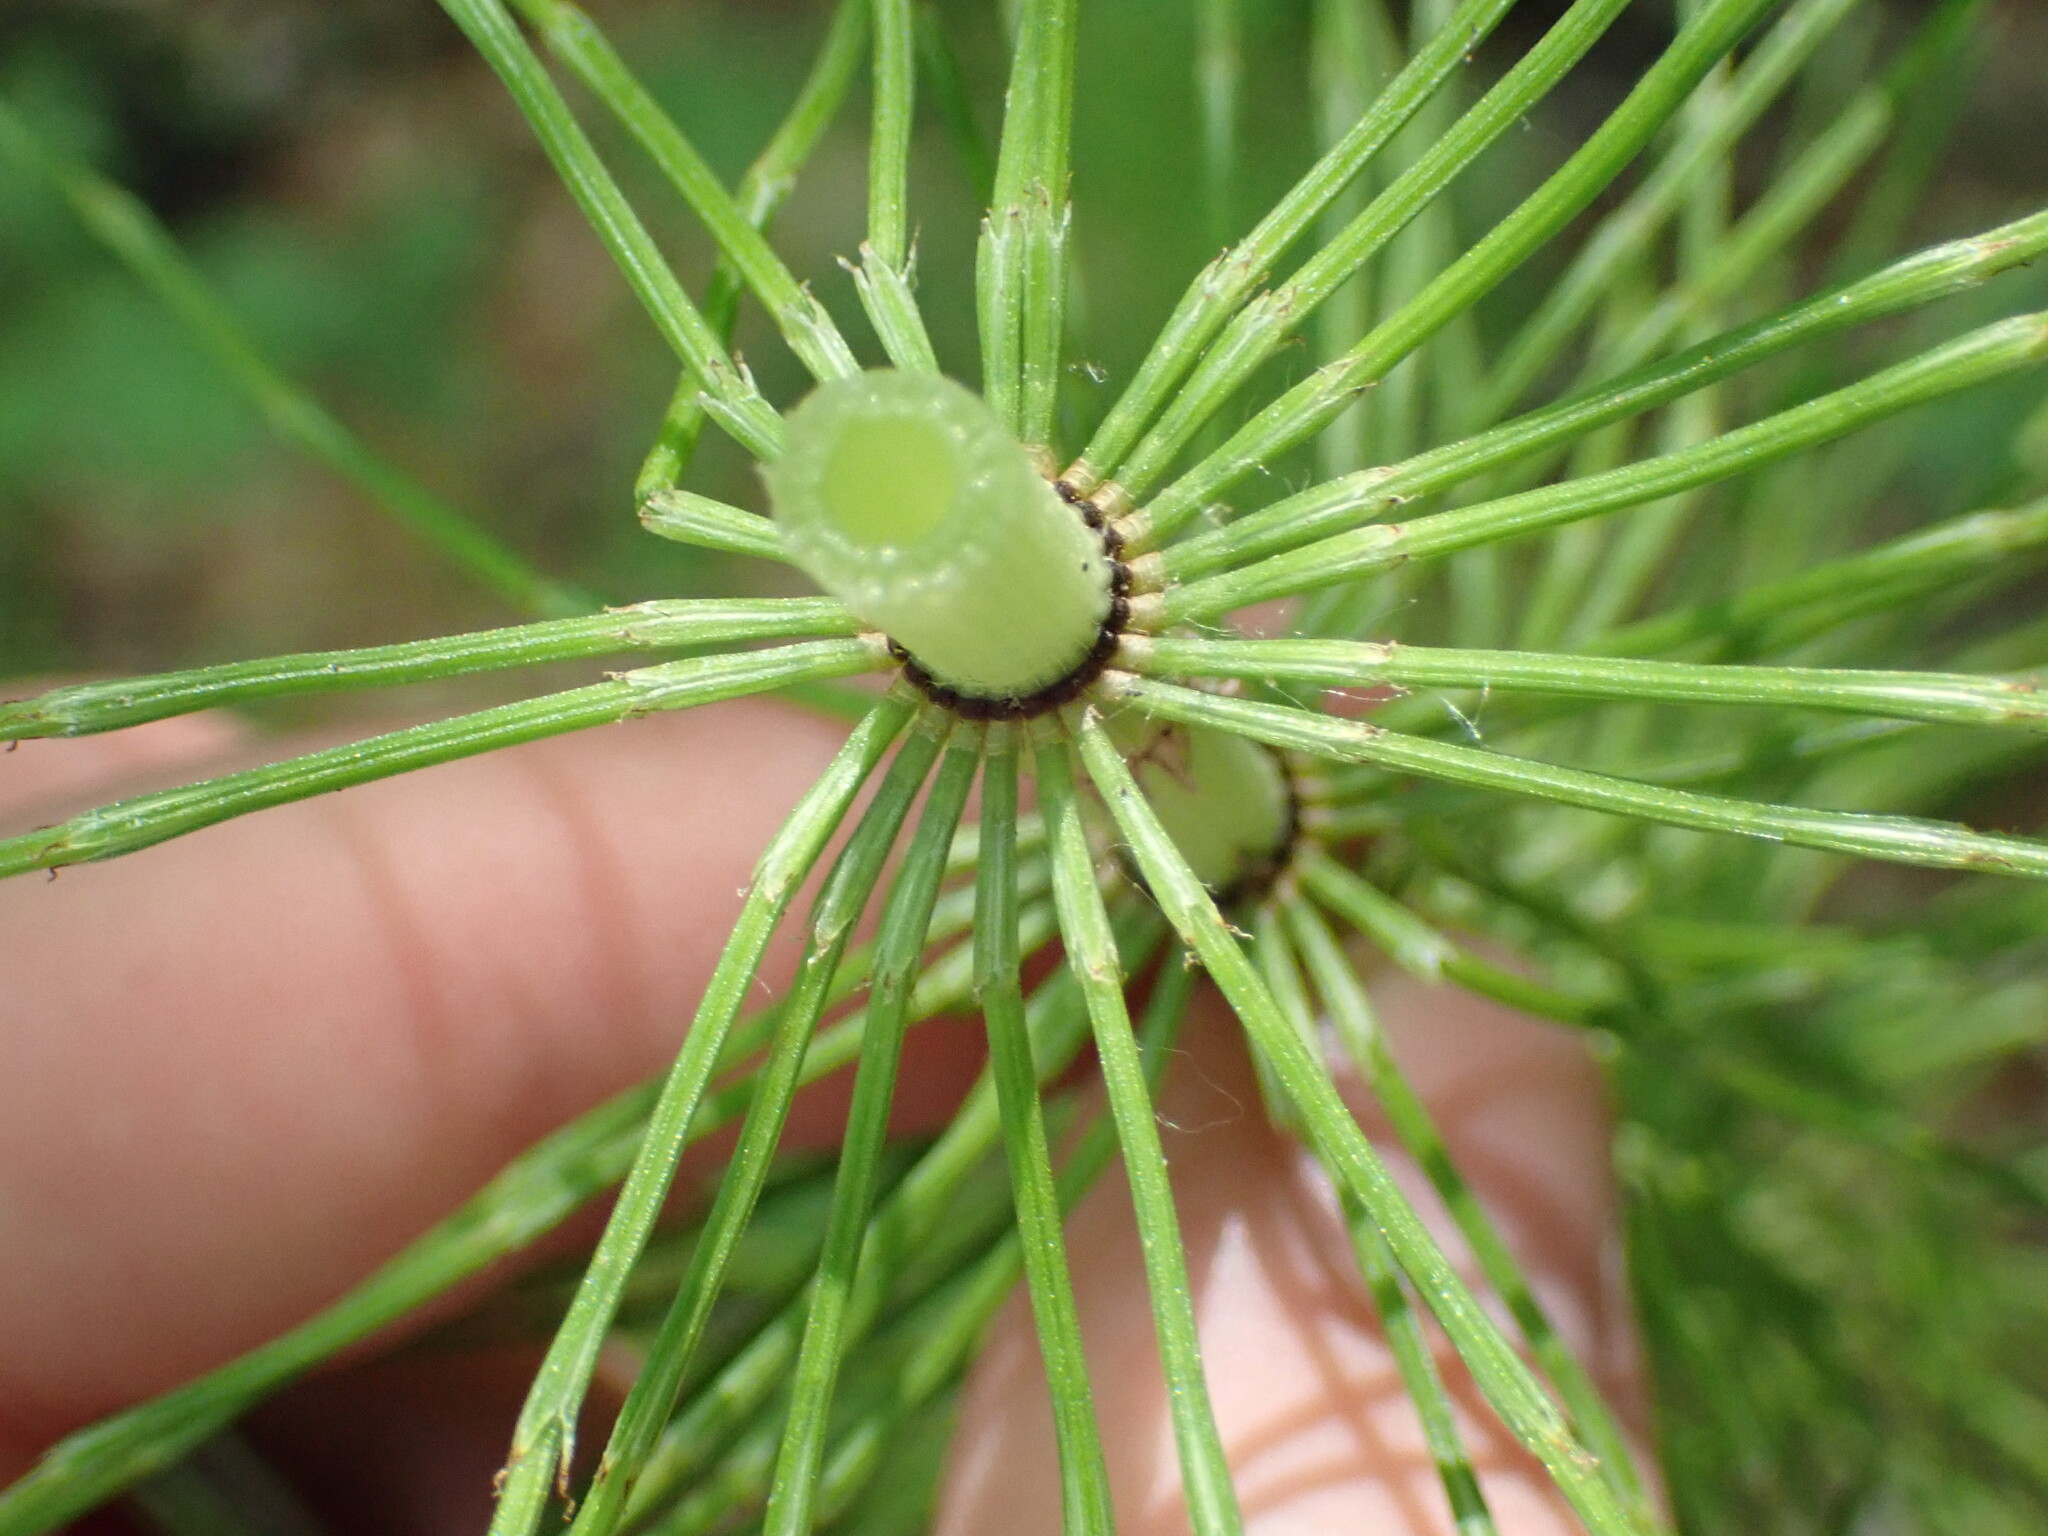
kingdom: Plantae
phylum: Tracheophyta
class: Polypodiopsida
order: Equisetales
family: Equisetaceae
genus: Equisetum
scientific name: Equisetum telmateia
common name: Great horsetail
